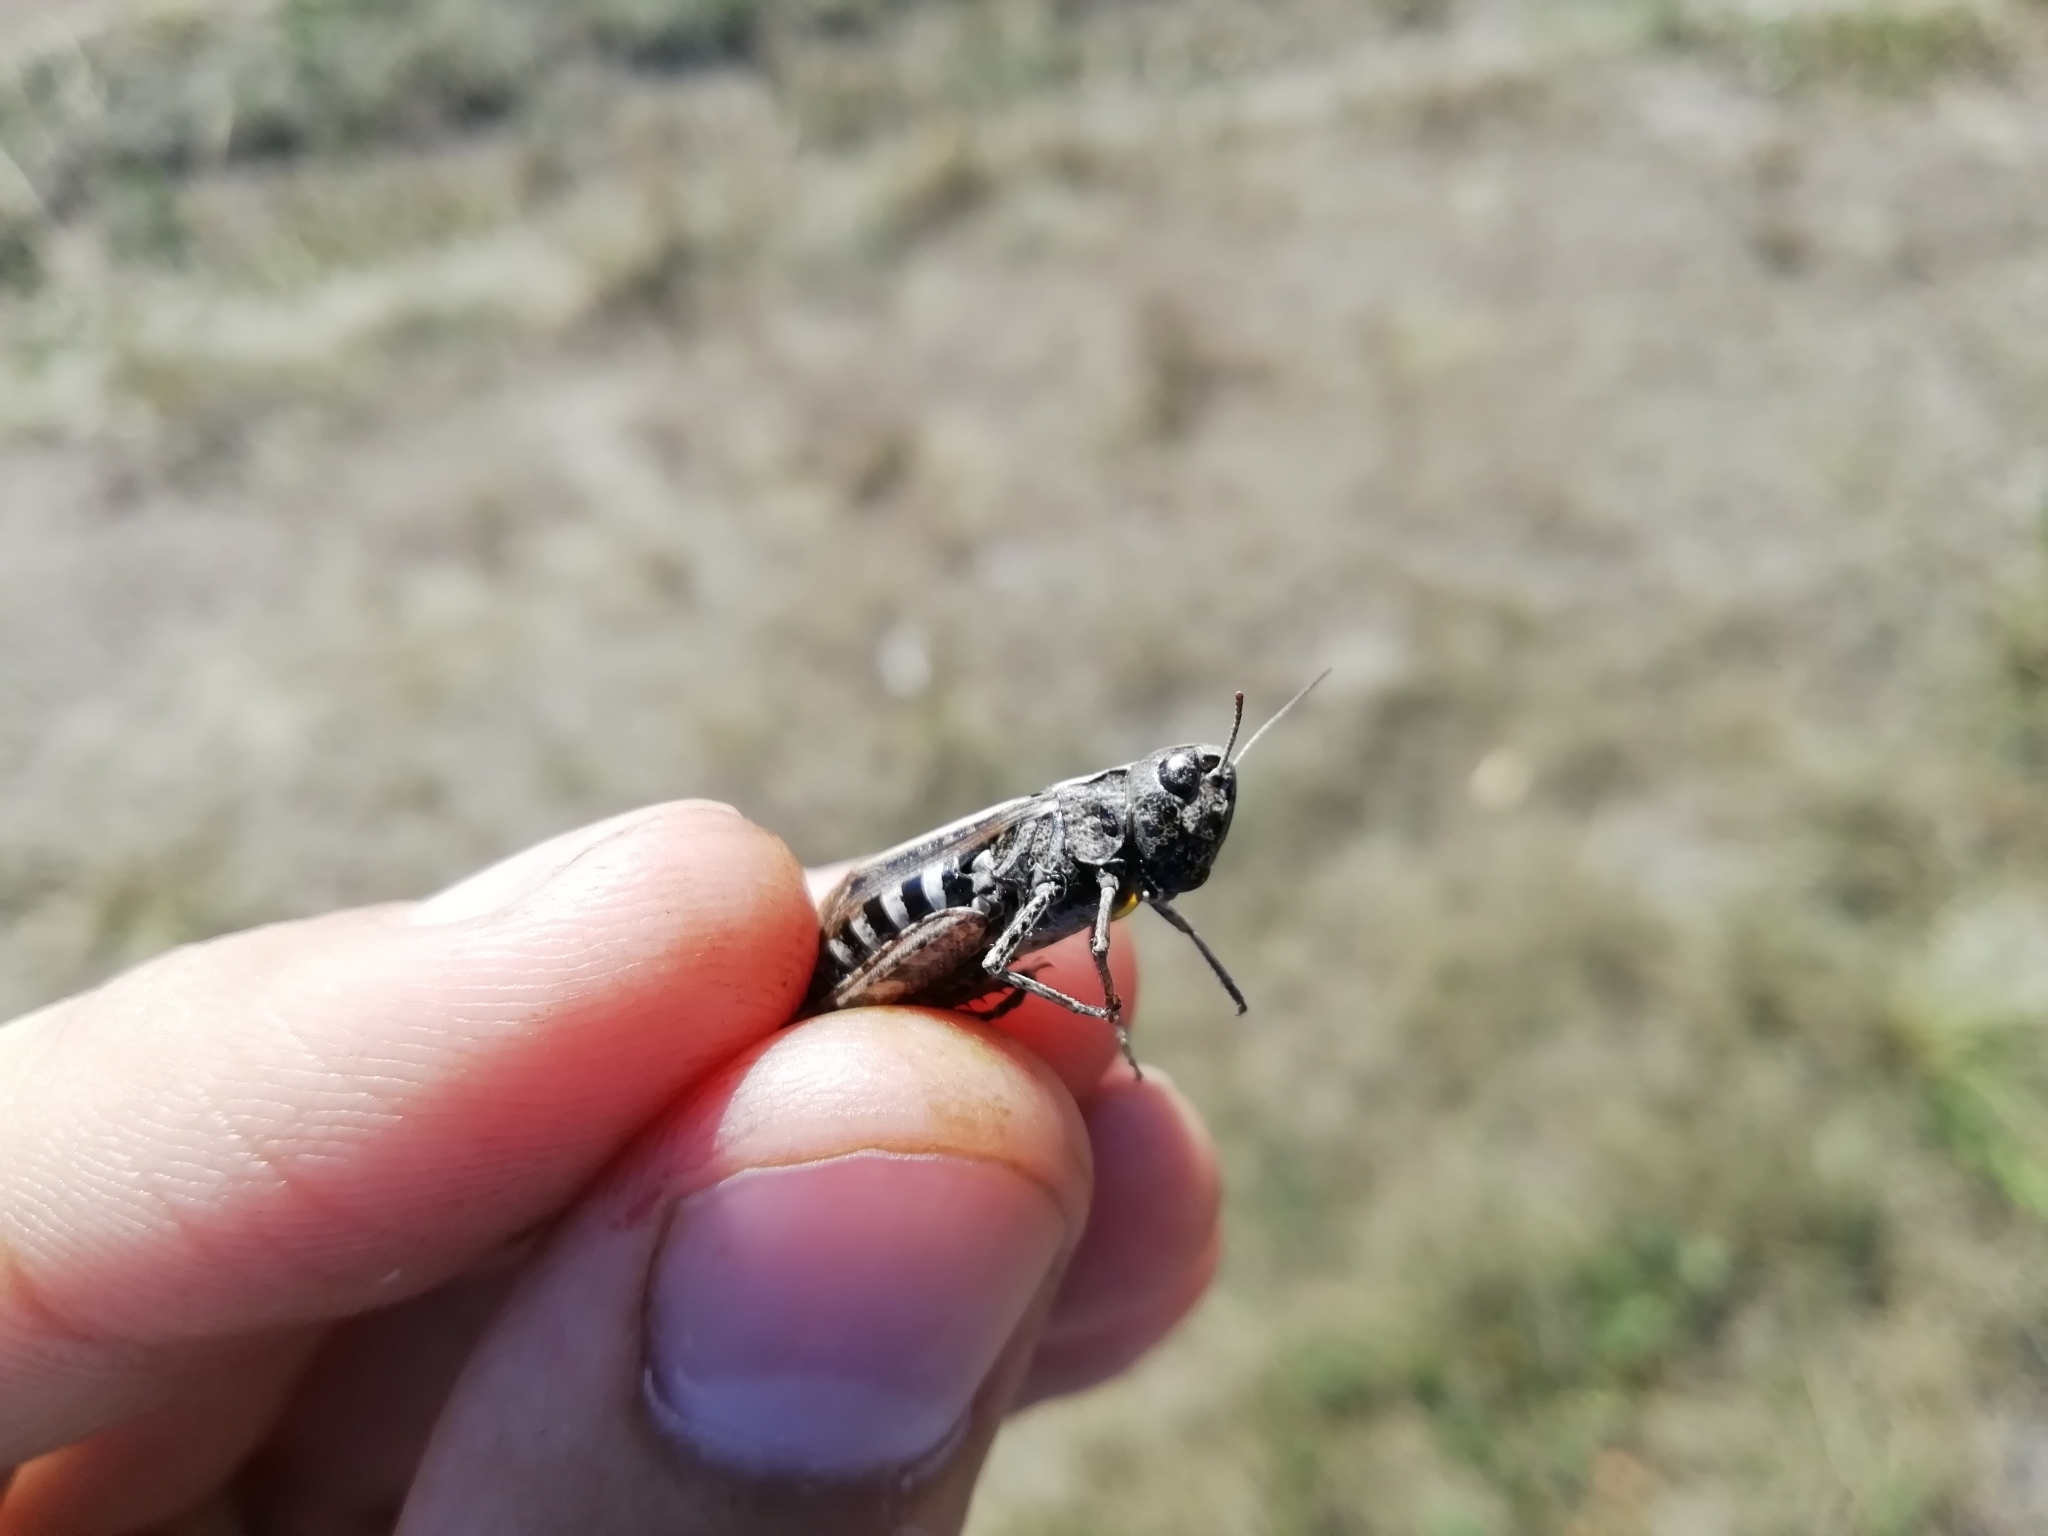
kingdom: Animalia
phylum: Arthropoda
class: Insecta
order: Orthoptera
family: Acrididae
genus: Omocestus
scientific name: Omocestus haemorrhoidalis
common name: Orange-tipped grasshopper
